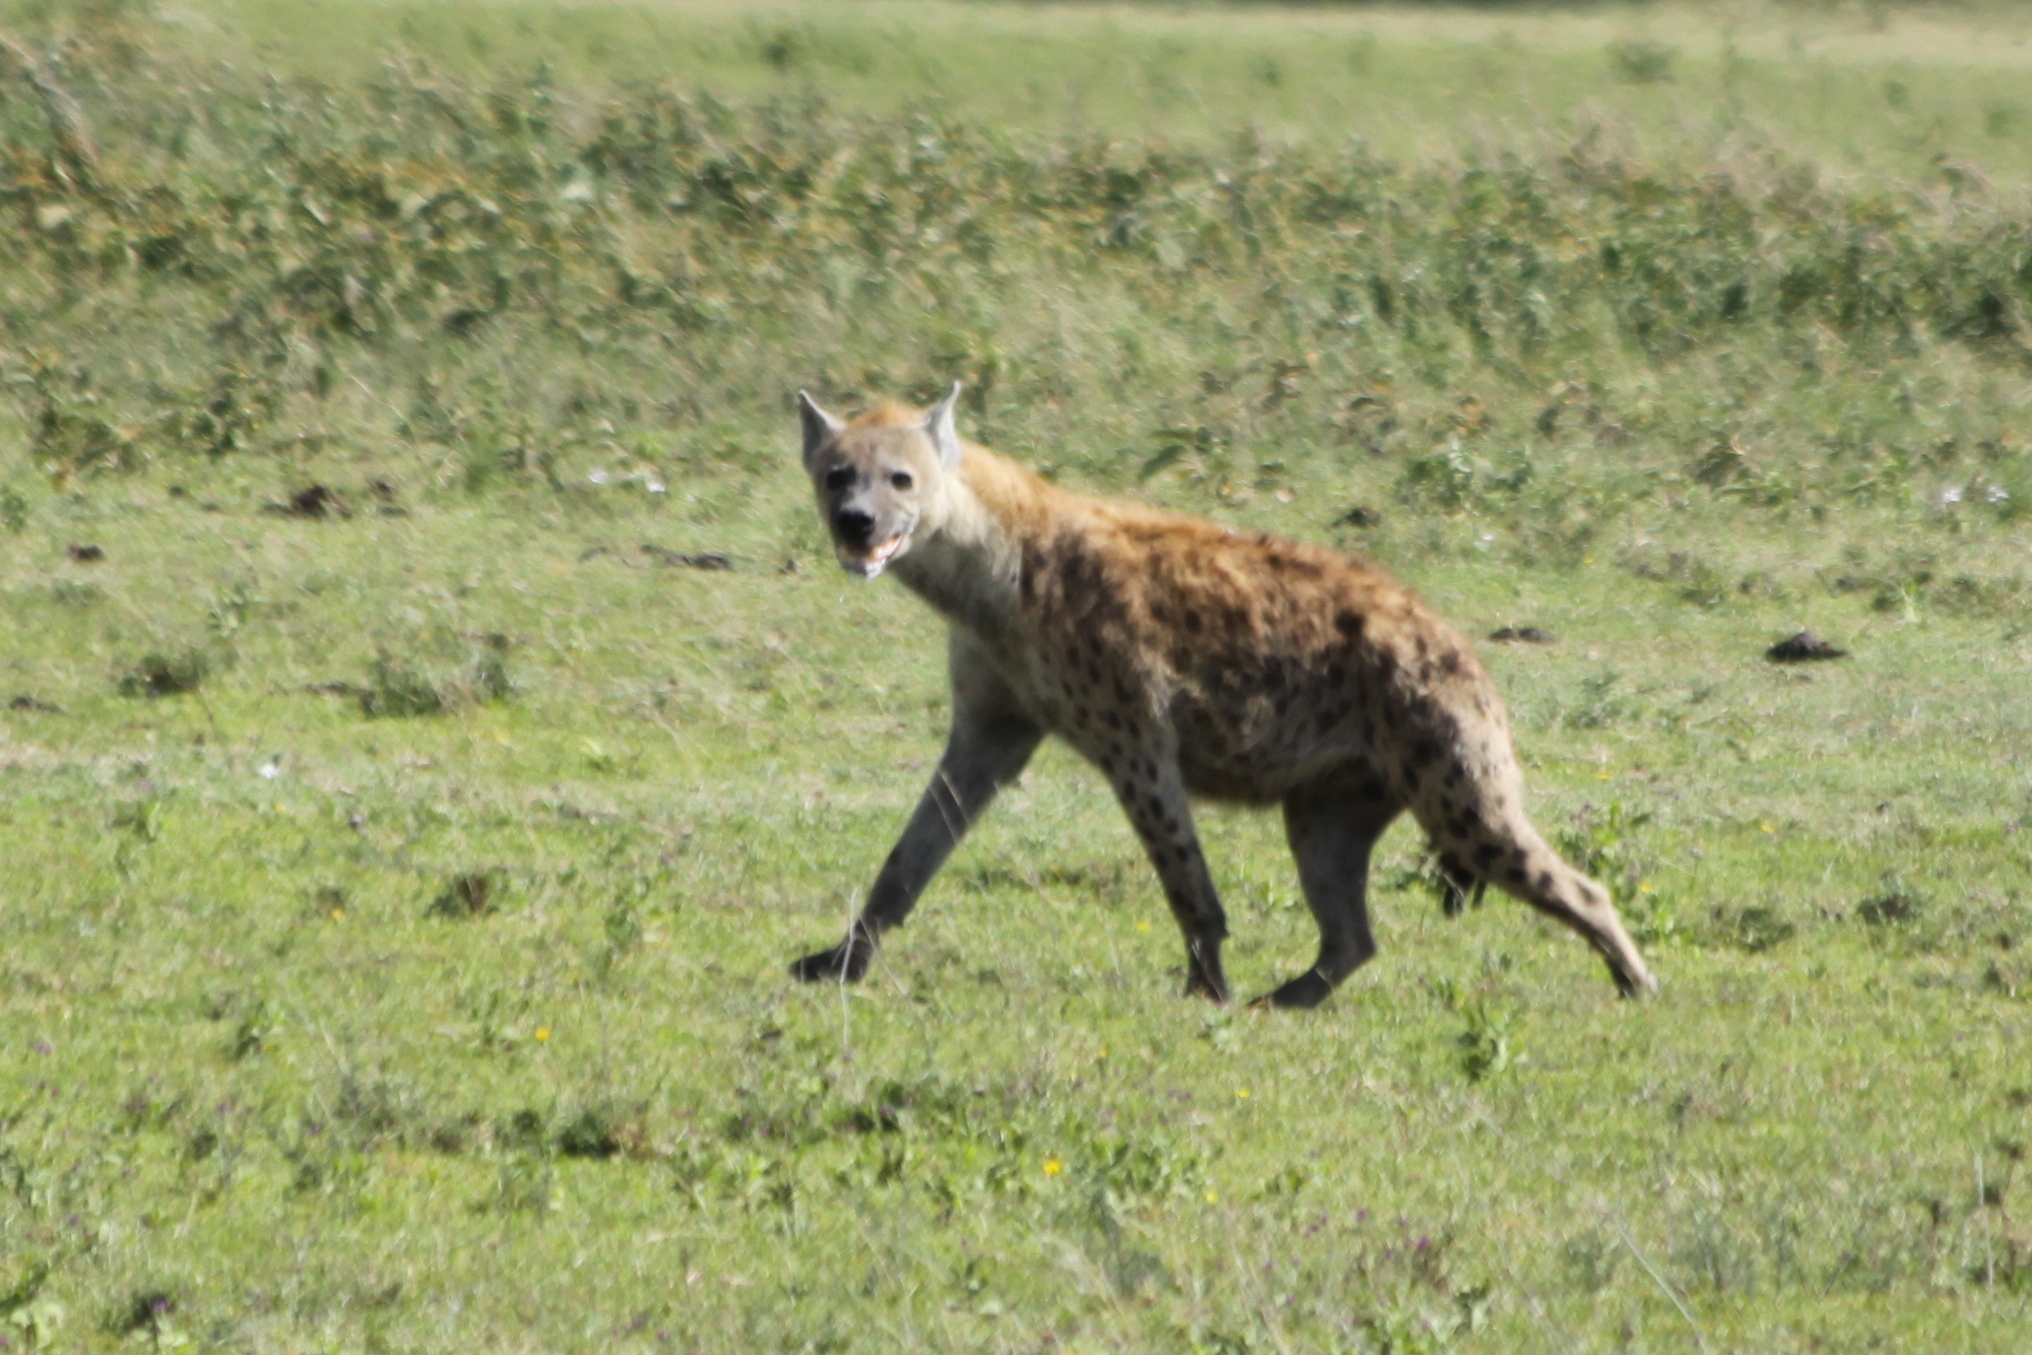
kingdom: Animalia
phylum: Chordata
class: Mammalia
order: Carnivora
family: Hyaenidae
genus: Crocuta
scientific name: Crocuta crocuta
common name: Spotted hyaena
